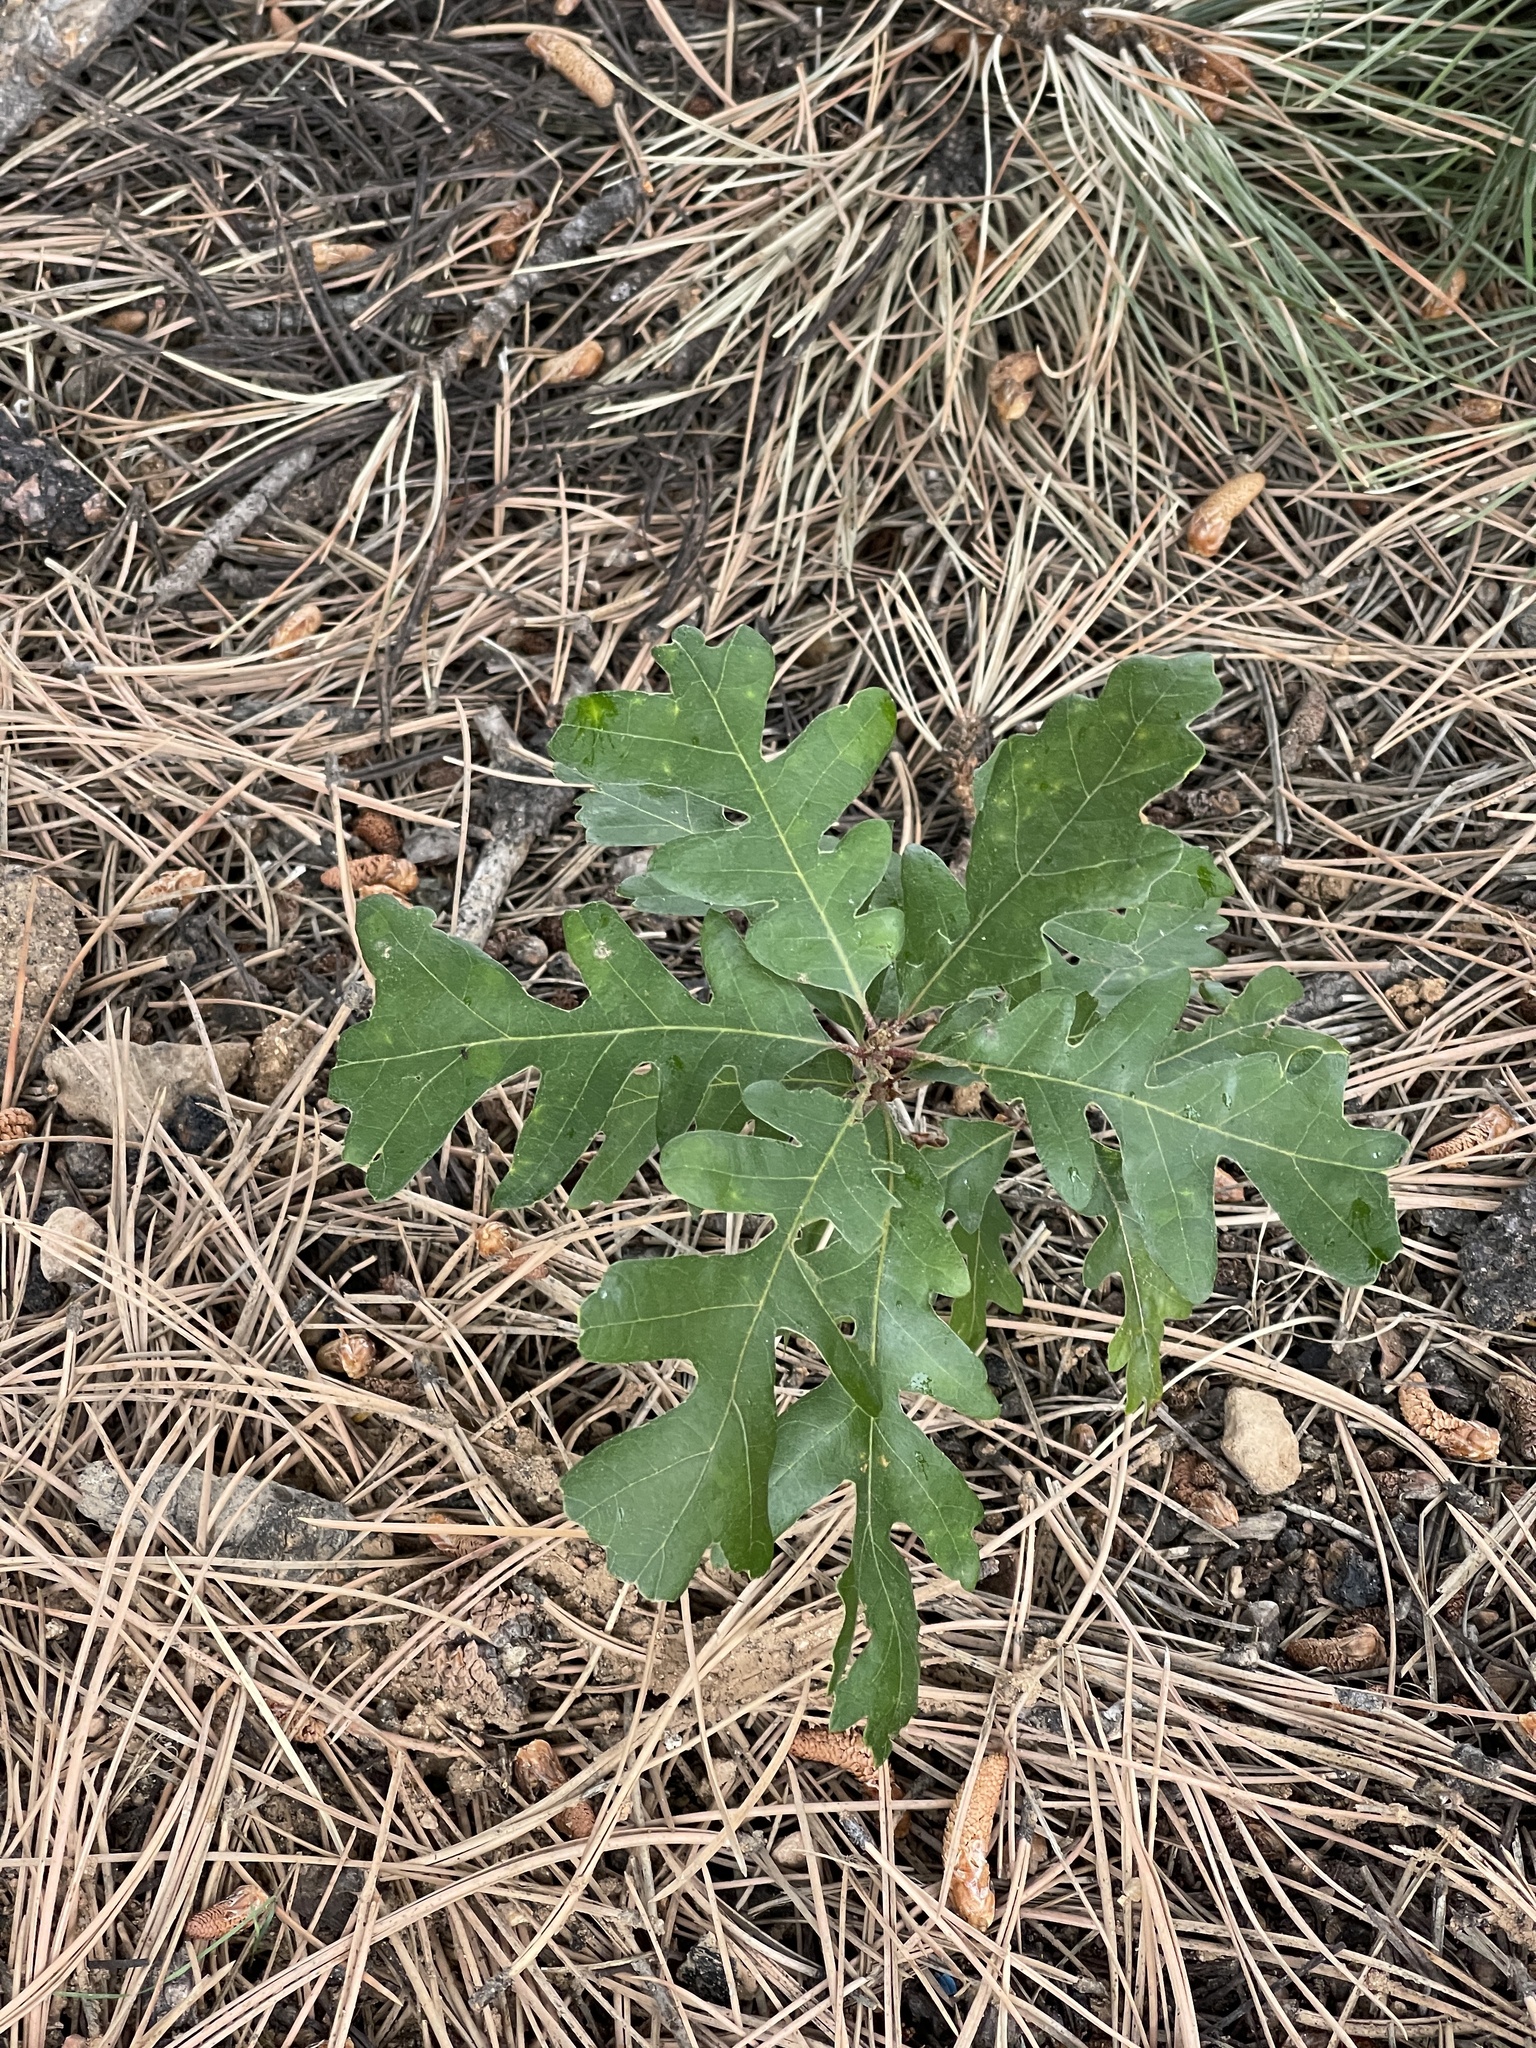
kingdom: Plantae
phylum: Tracheophyta
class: Magnoliopsida
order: Fagales
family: Fagaceae
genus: Quercus
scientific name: Quercus gambelii
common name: Gambel oak
